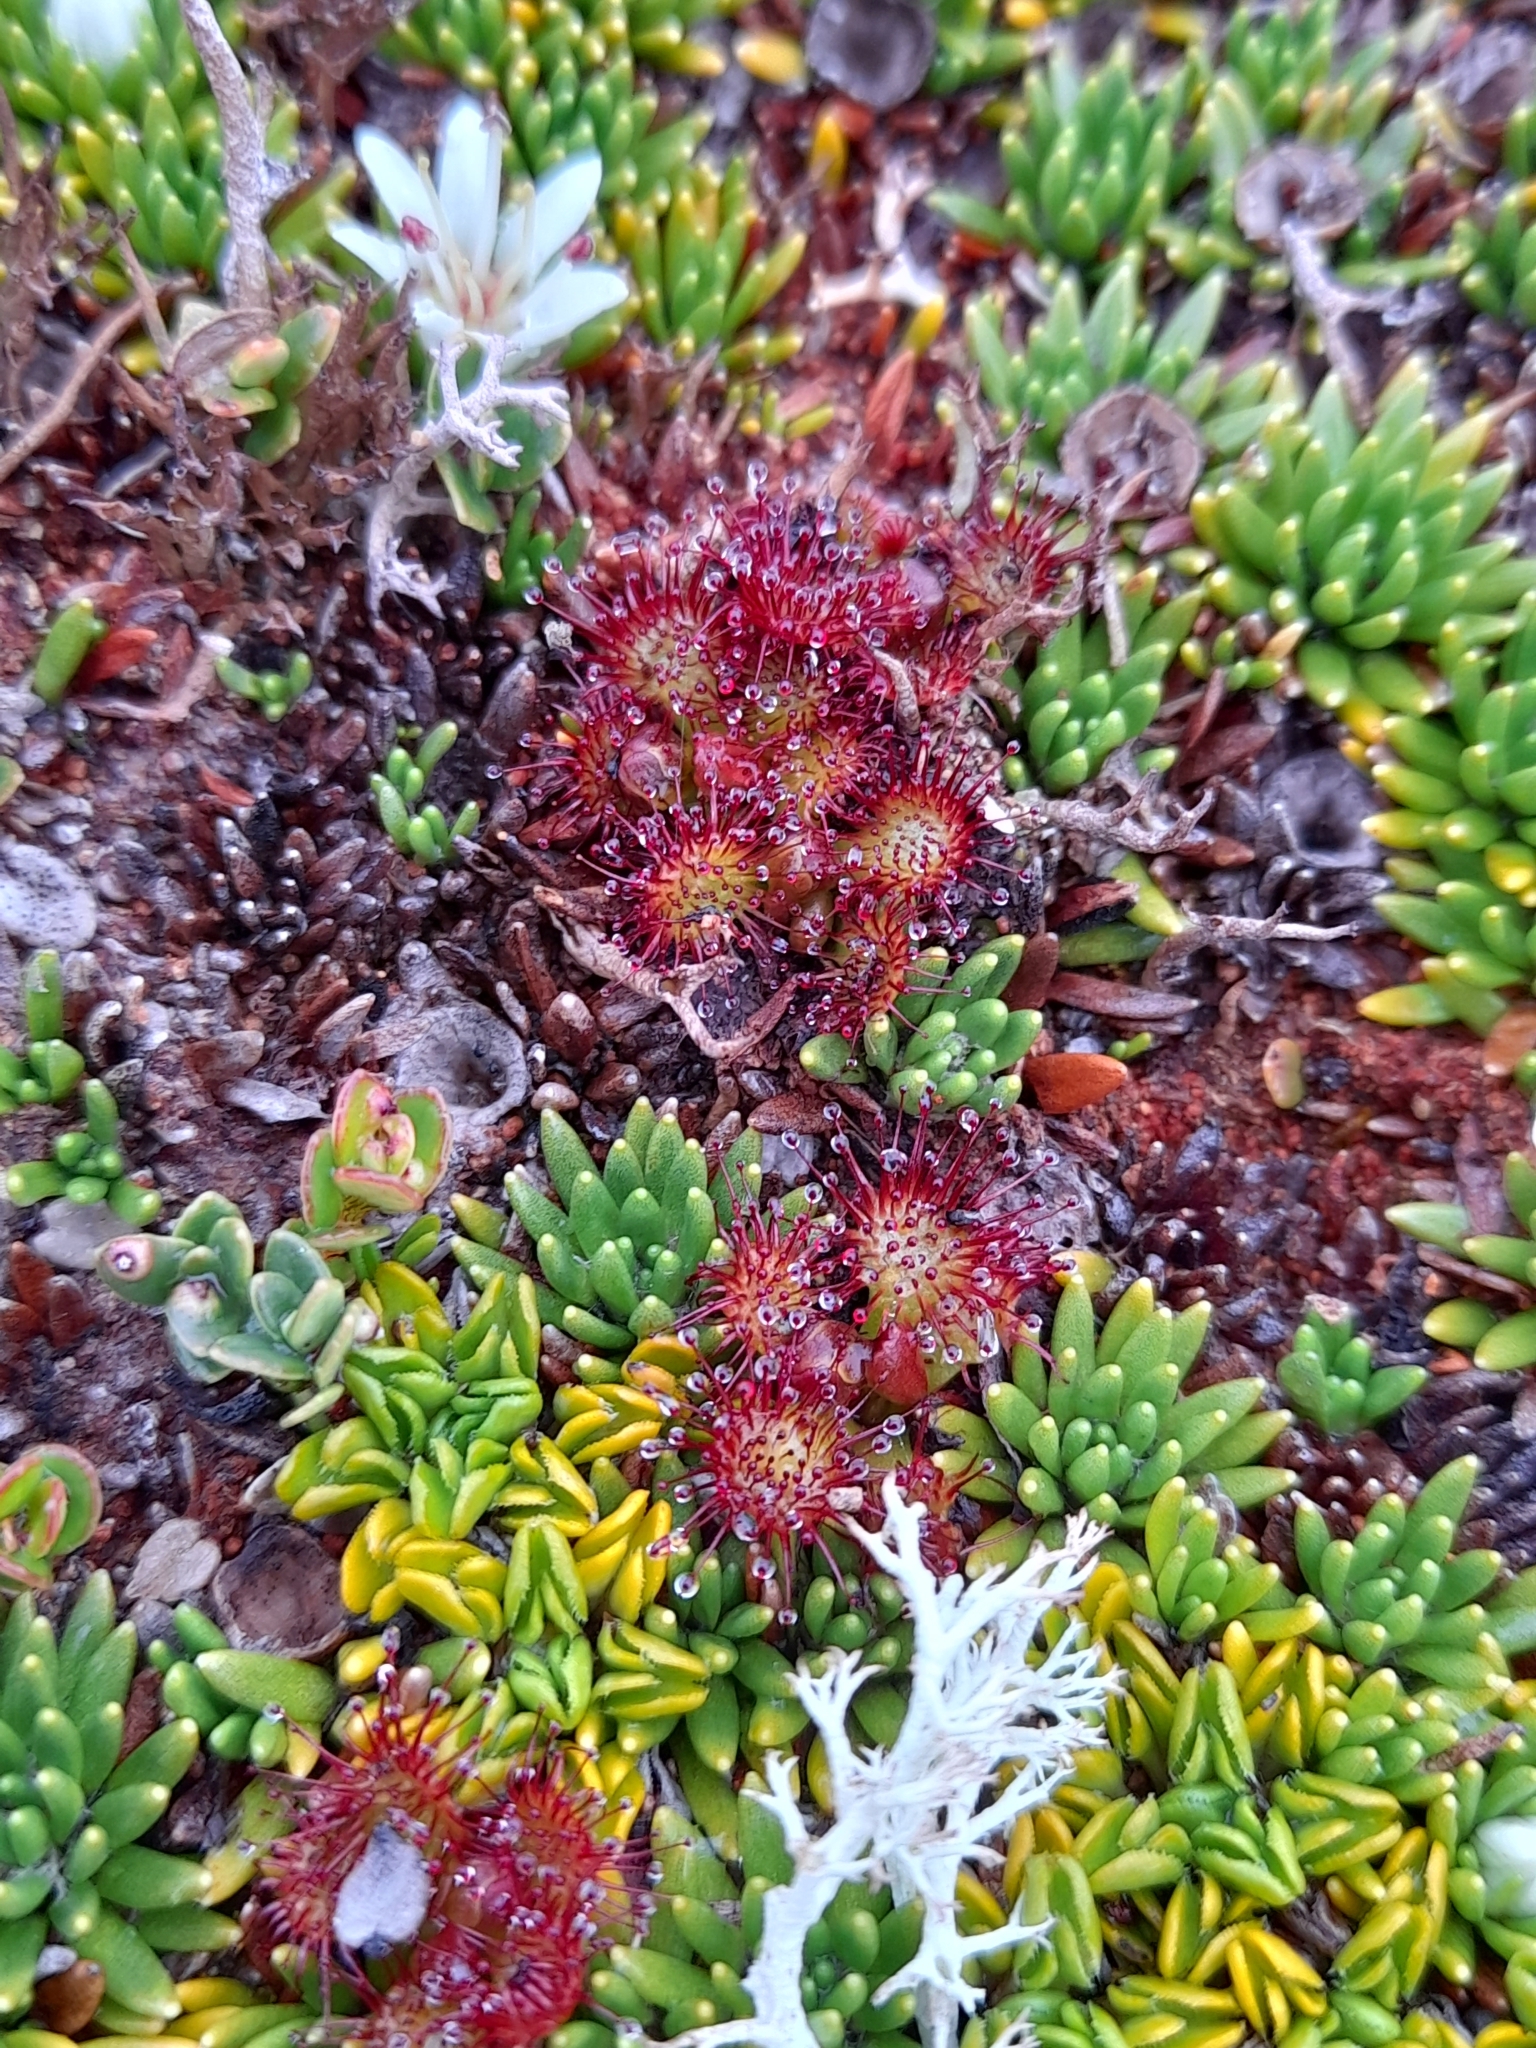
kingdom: Plantae
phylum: Tracheophyta
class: Magnoliopsida
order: Caryophyllales
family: Droseraceae
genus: Drosera
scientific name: Drosera uniflora
